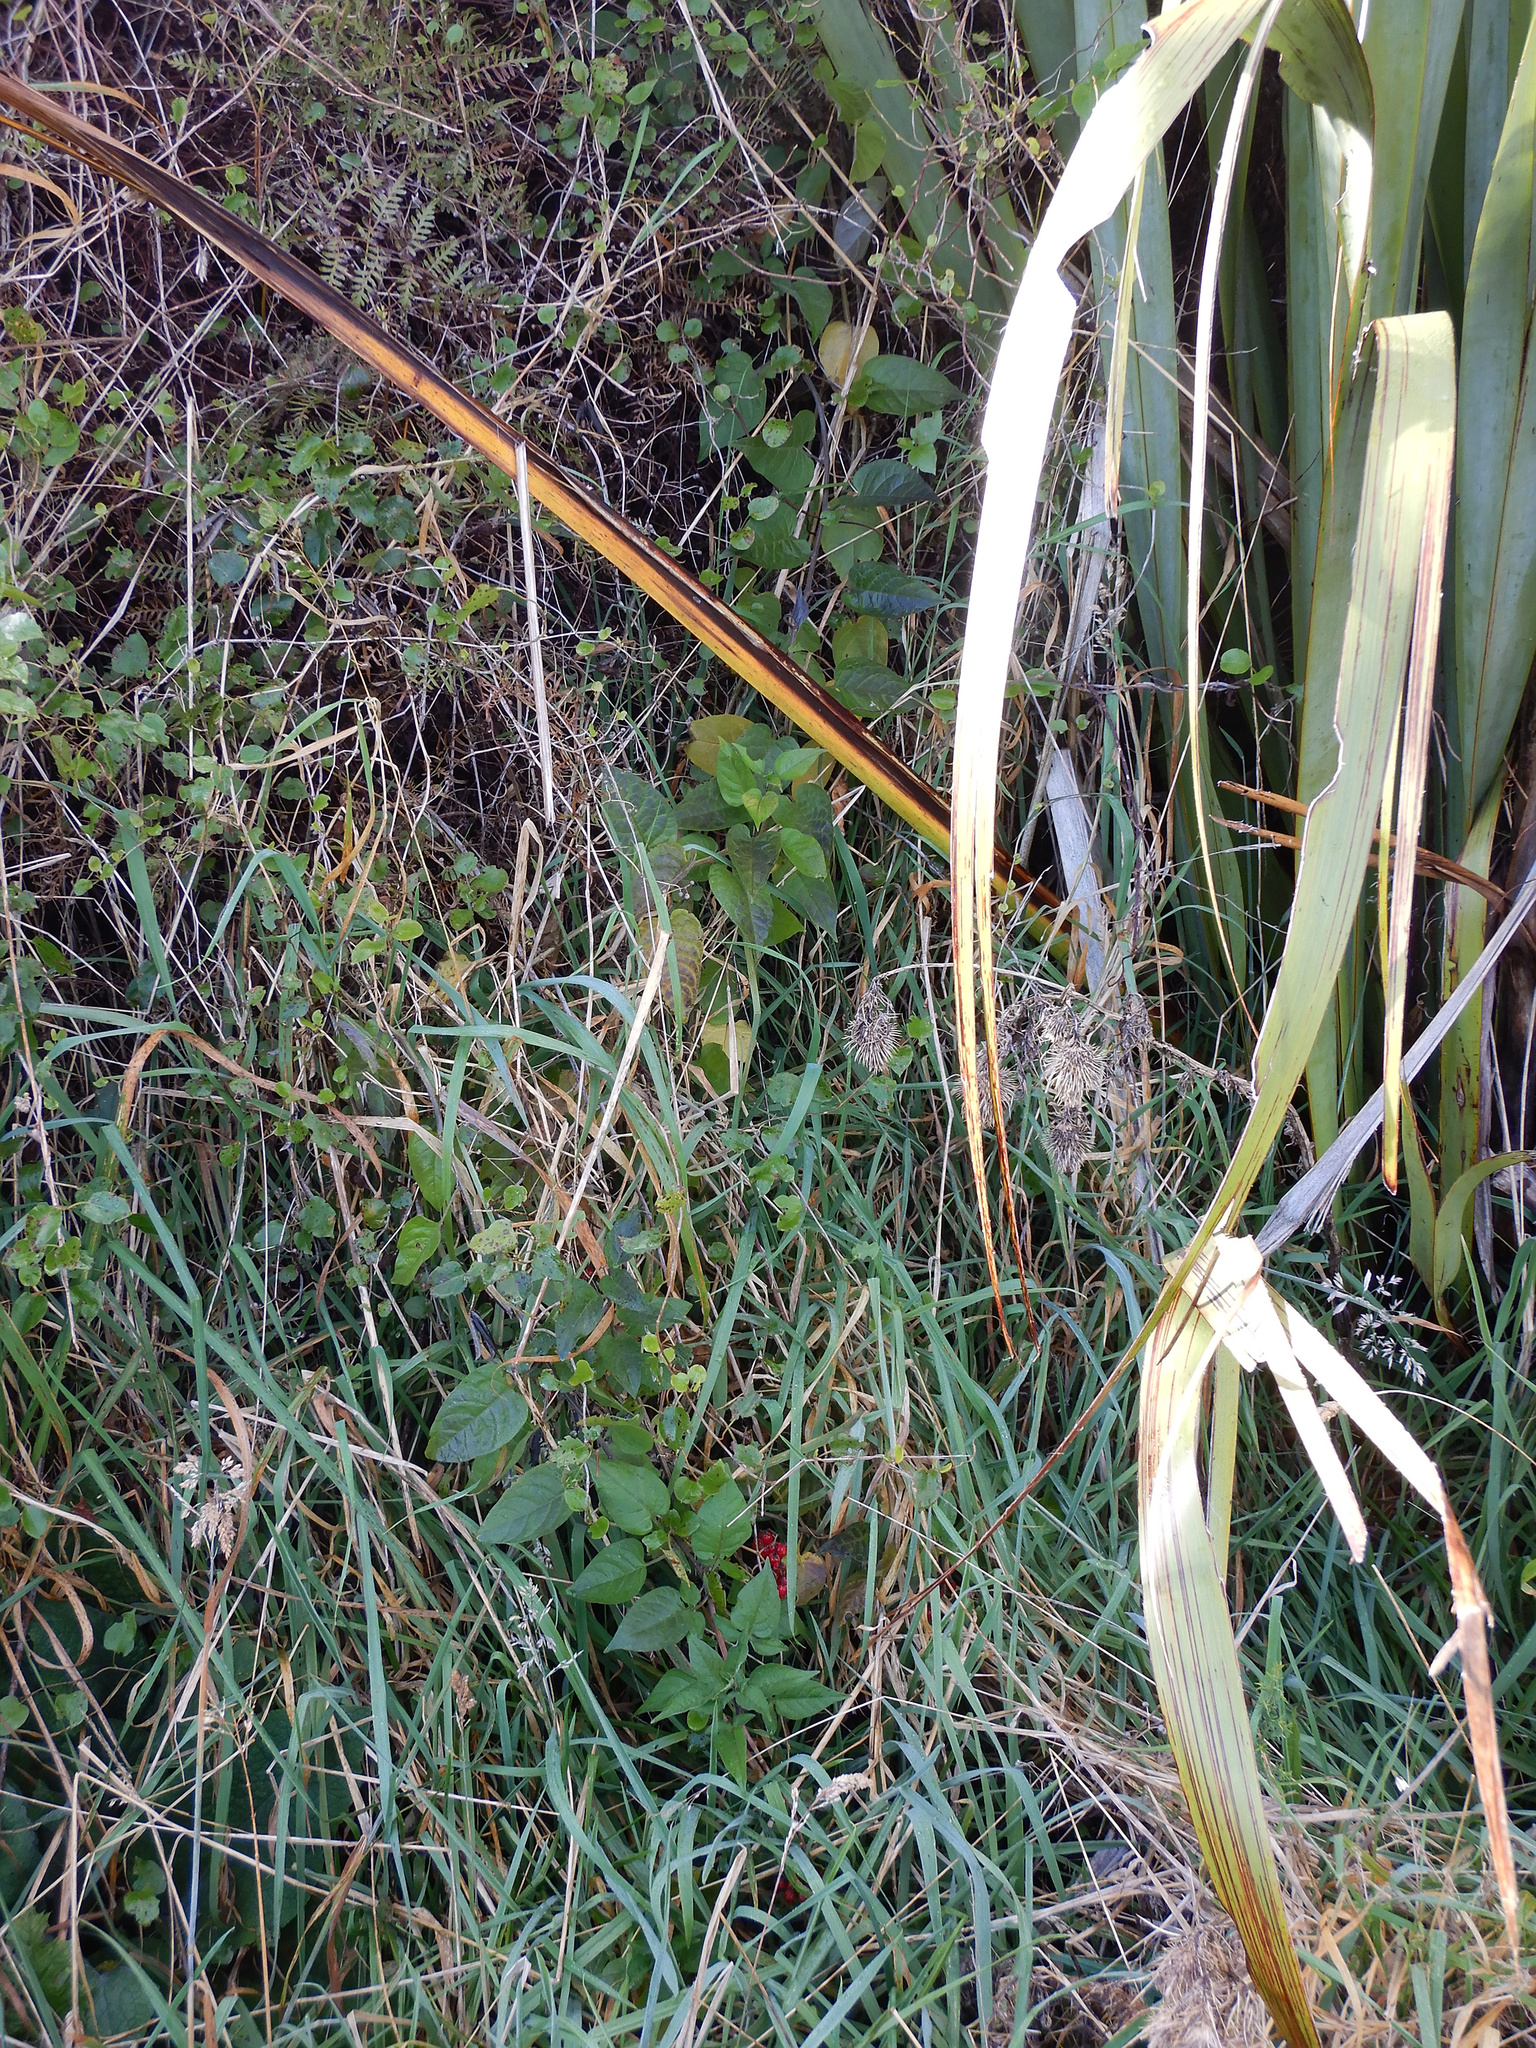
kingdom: Plantae
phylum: Tracheophyta
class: Magnoliopsida
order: Solanales
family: Solanaceae
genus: Solanum
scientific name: Solanum dulcamara
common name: Climbing nightshade
